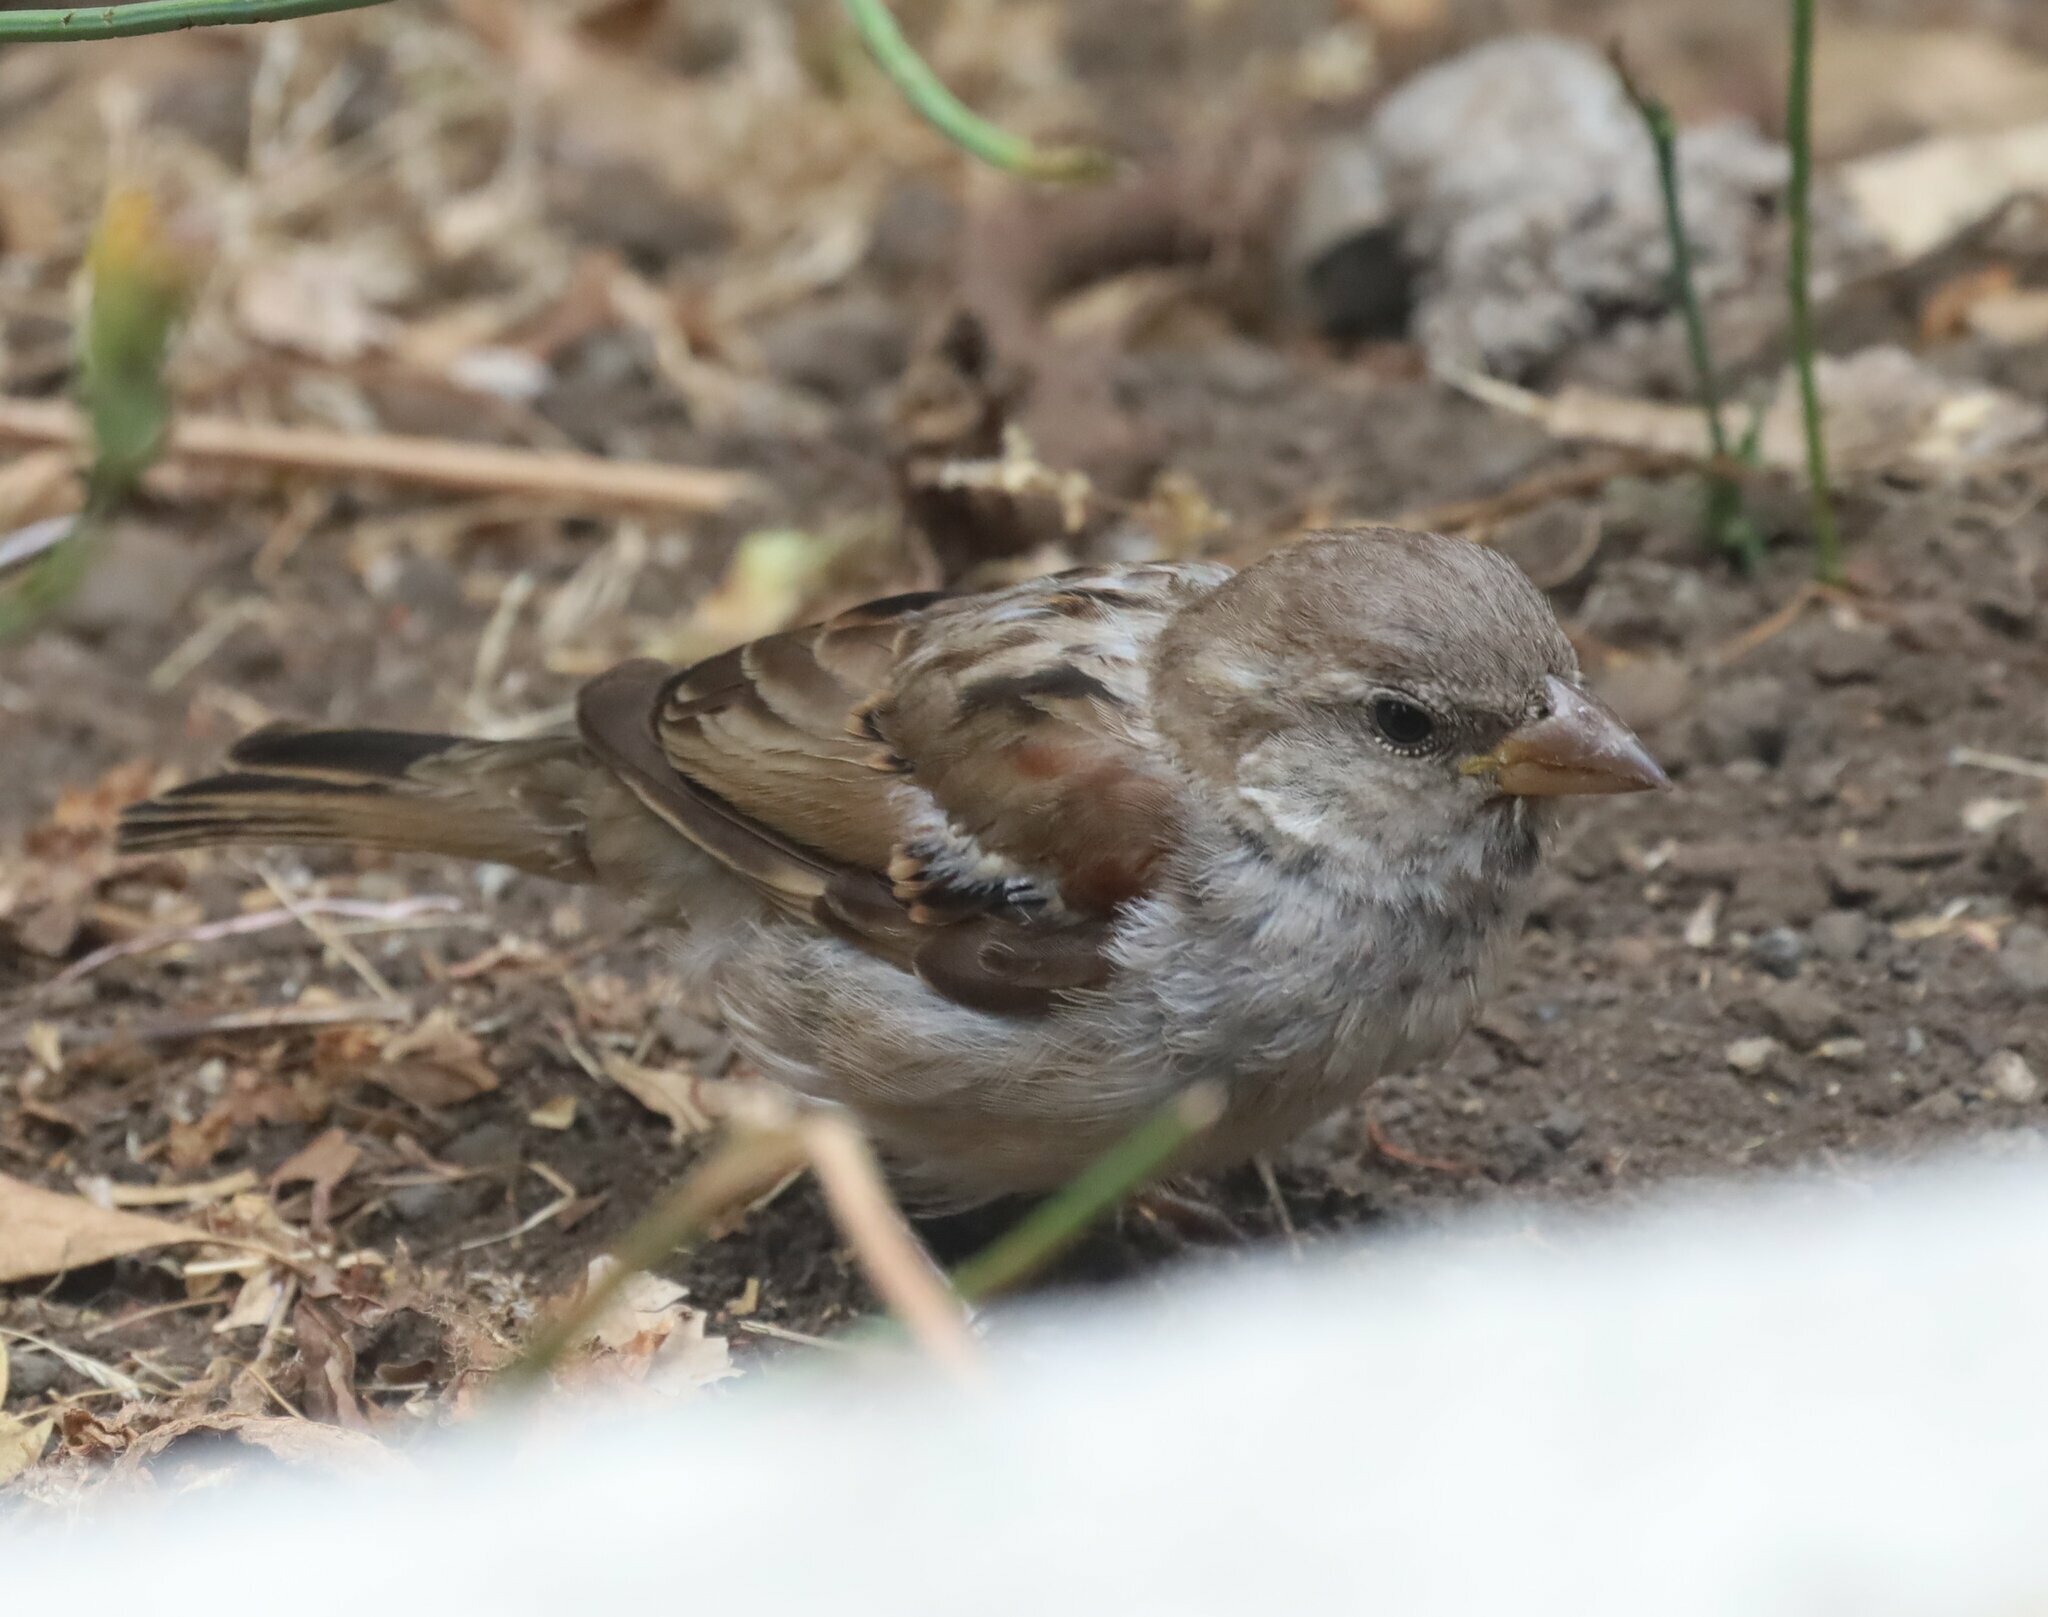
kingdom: Animalia
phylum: Chordata
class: Aves
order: Passeriformes
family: Passeridae
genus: Passer
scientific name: Passer domesticus
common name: House sparrow
